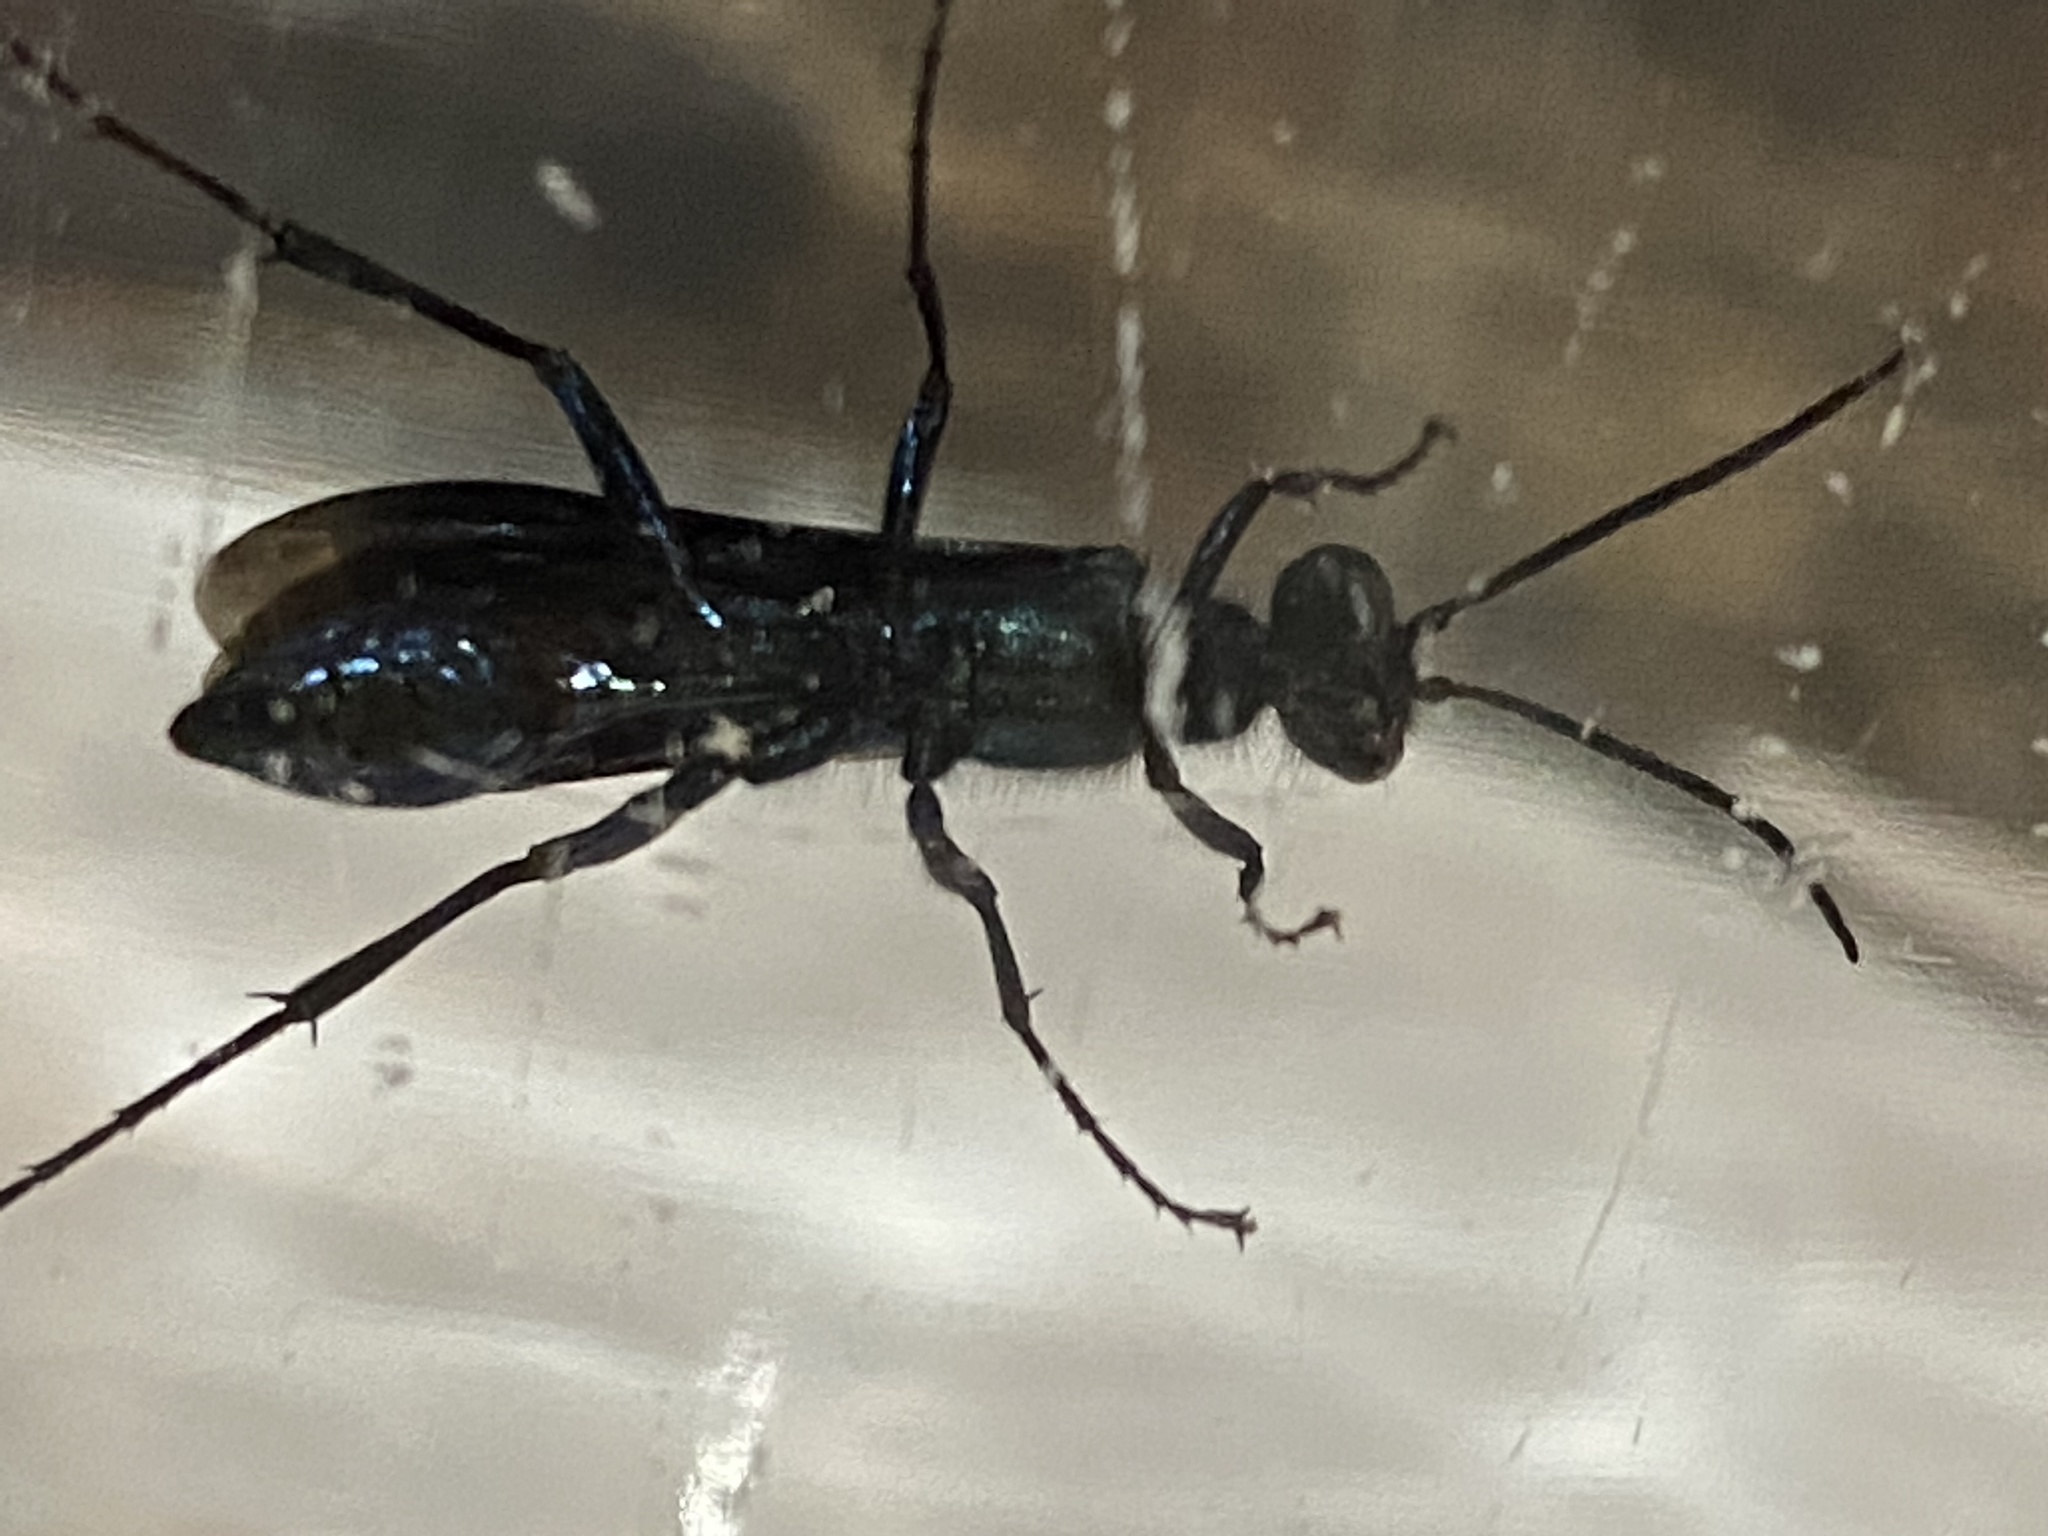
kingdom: Animalia
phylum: Arthropoda
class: Insecta
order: Hymenoptera
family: Sphecidae
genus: Chalybion
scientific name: Chalybion californicum
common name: Mud dauber
